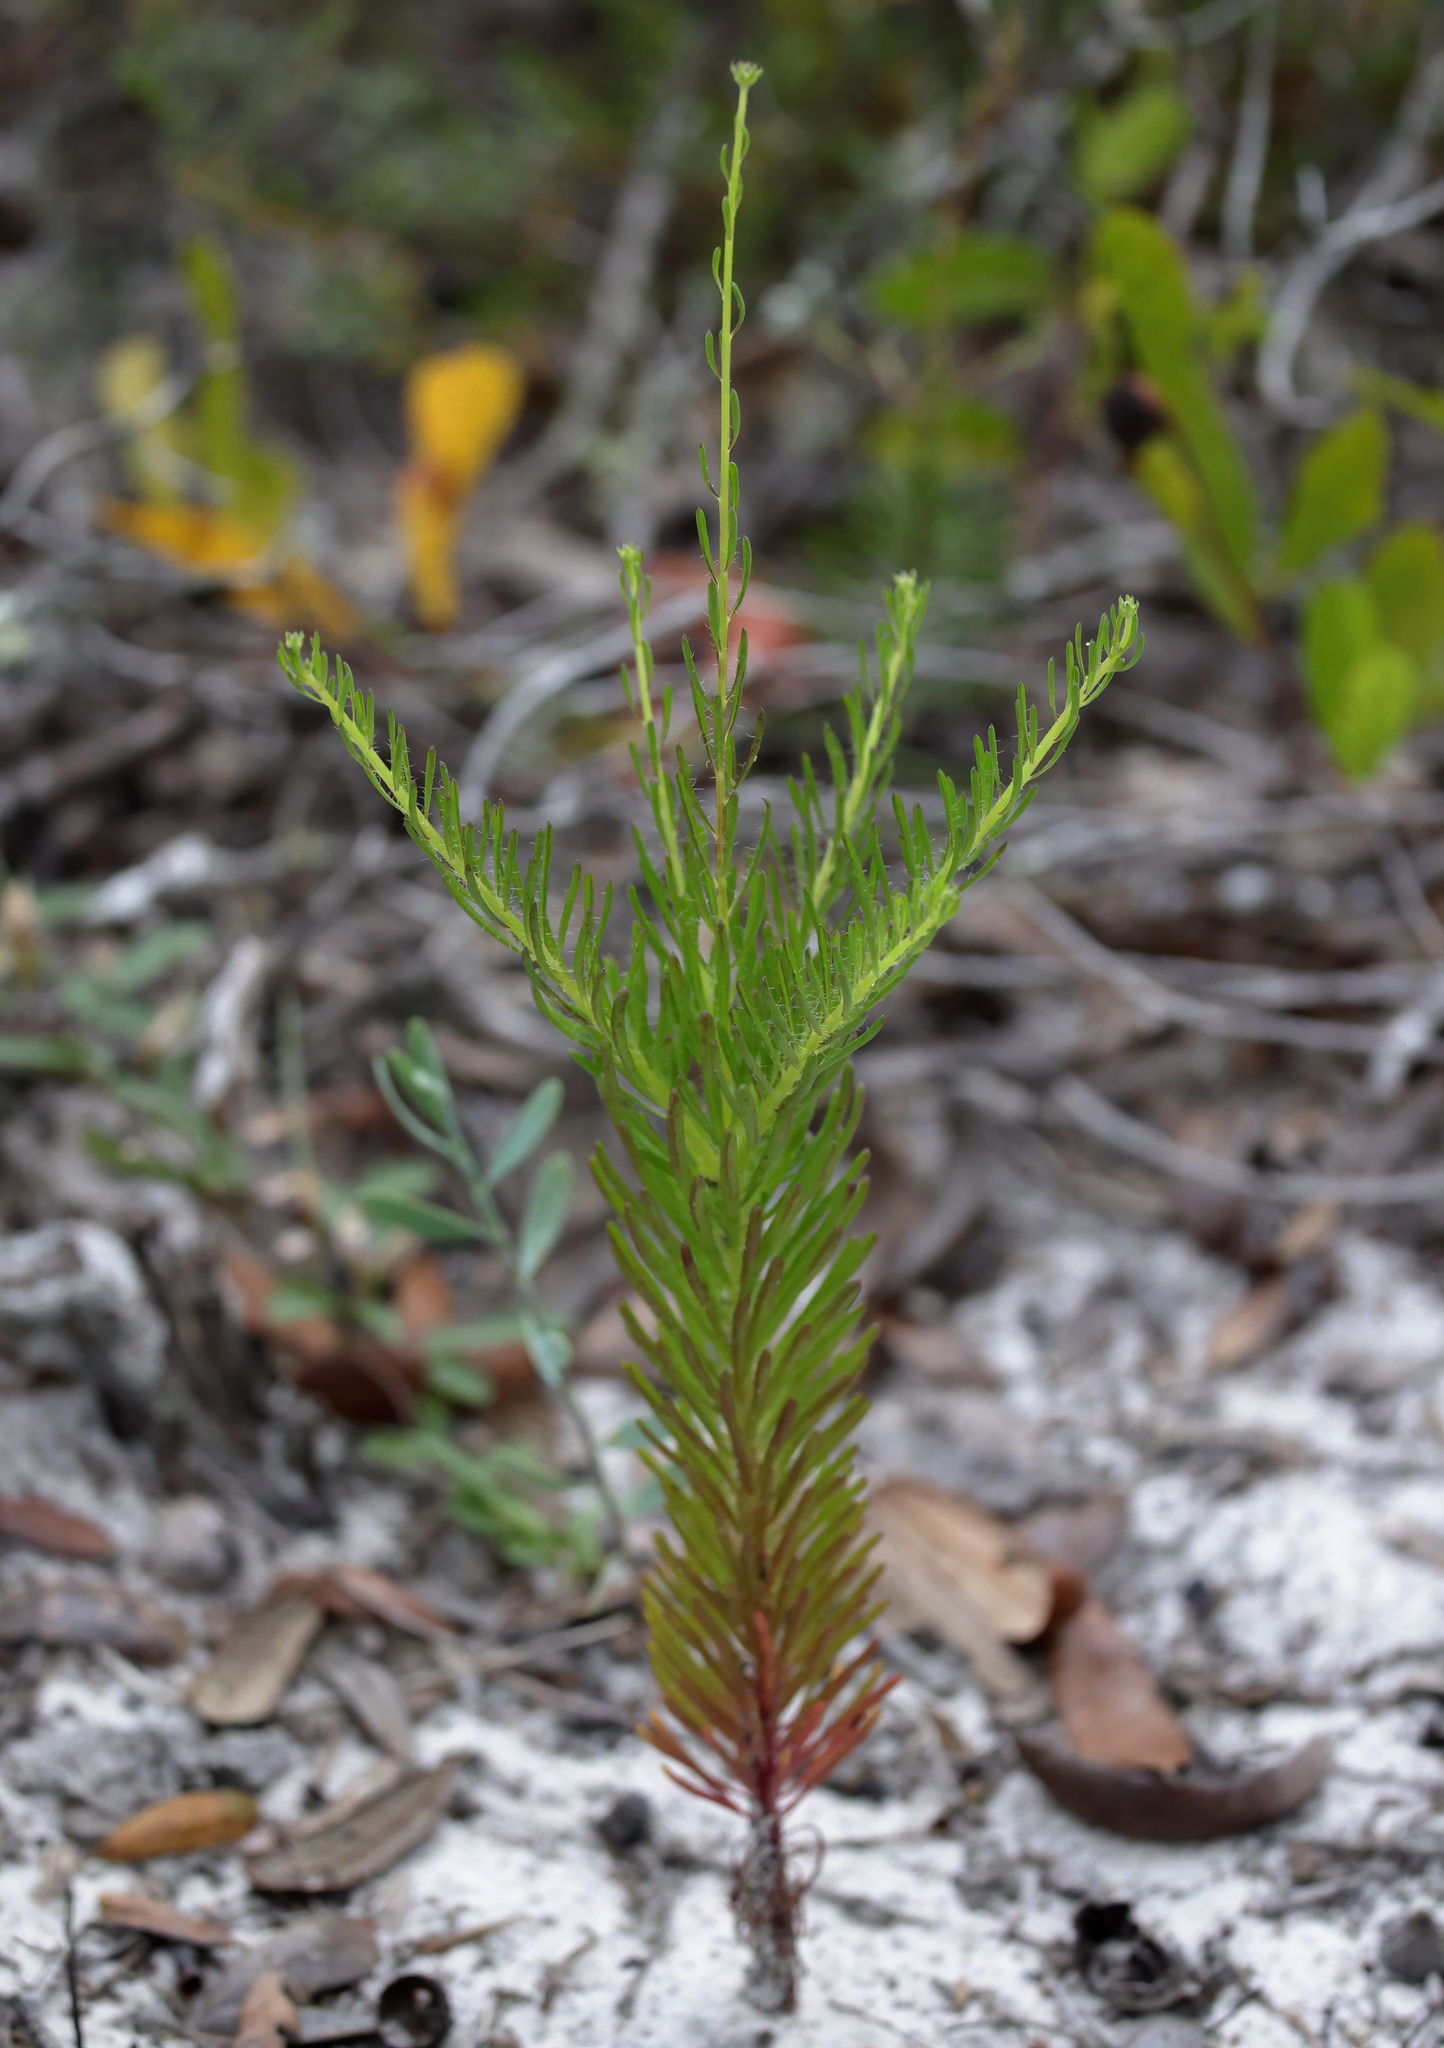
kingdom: Plantae
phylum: Tracheophyta
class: Magnoliopsida
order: Asterales
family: Asteraceae
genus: Balduina
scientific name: Balduina angustifolia
